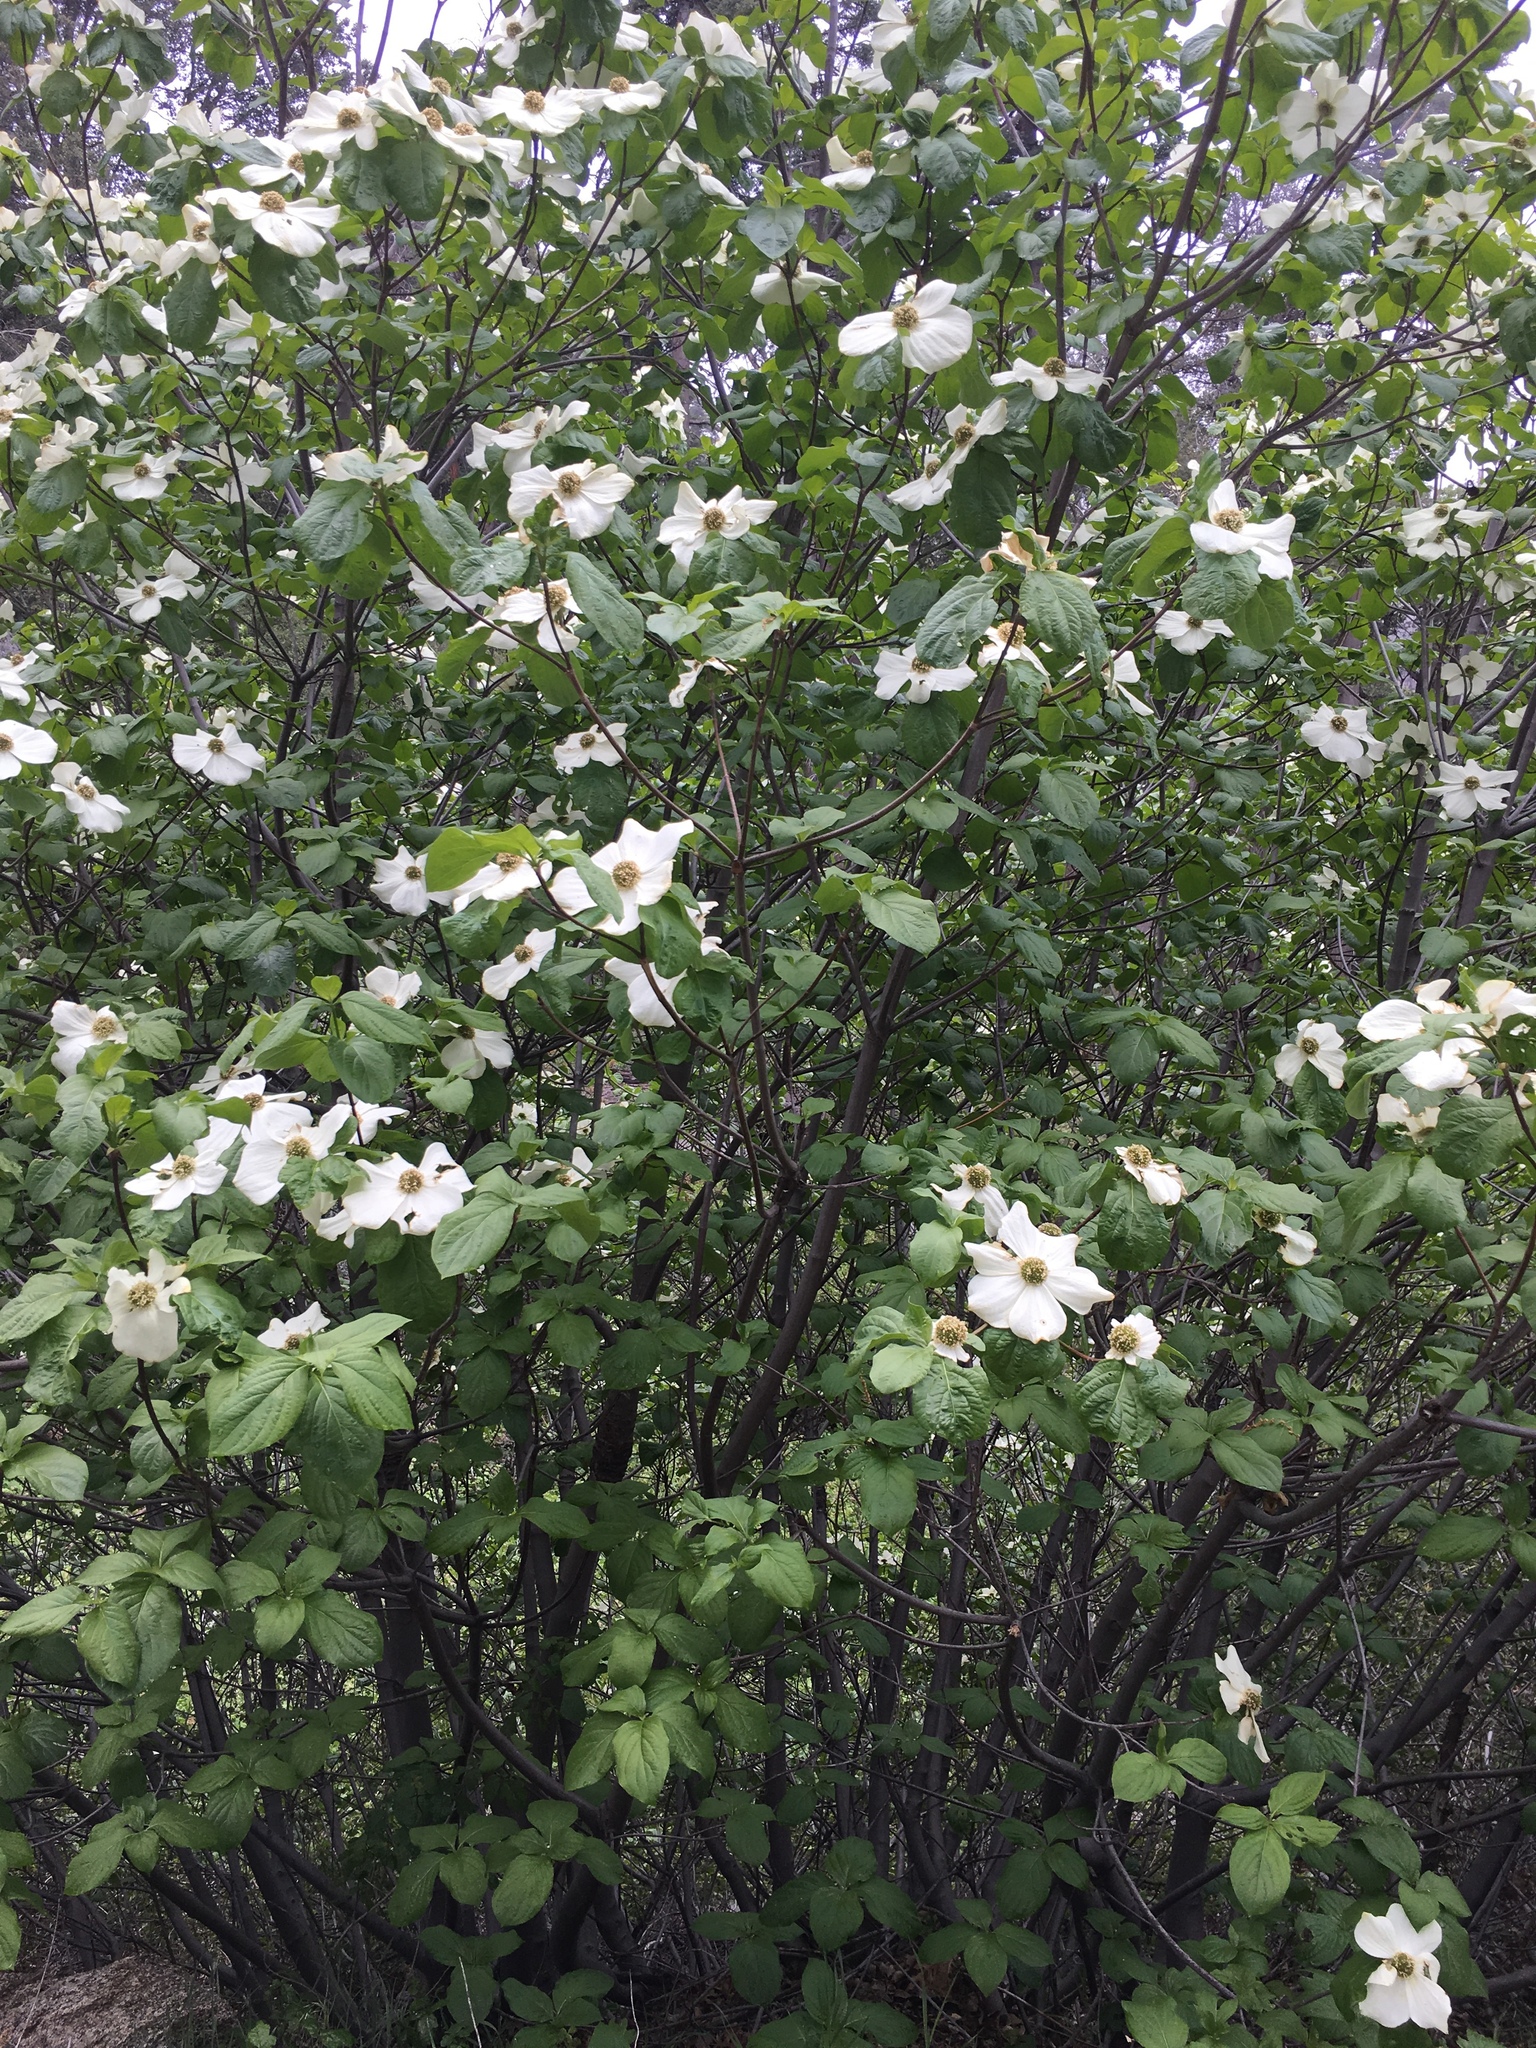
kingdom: Plantae
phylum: Tracheophyta
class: Magnoliopsida
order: Cornales
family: Cornaceae
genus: Cornus
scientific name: Cornus nuttallii
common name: Pacific dogwood
